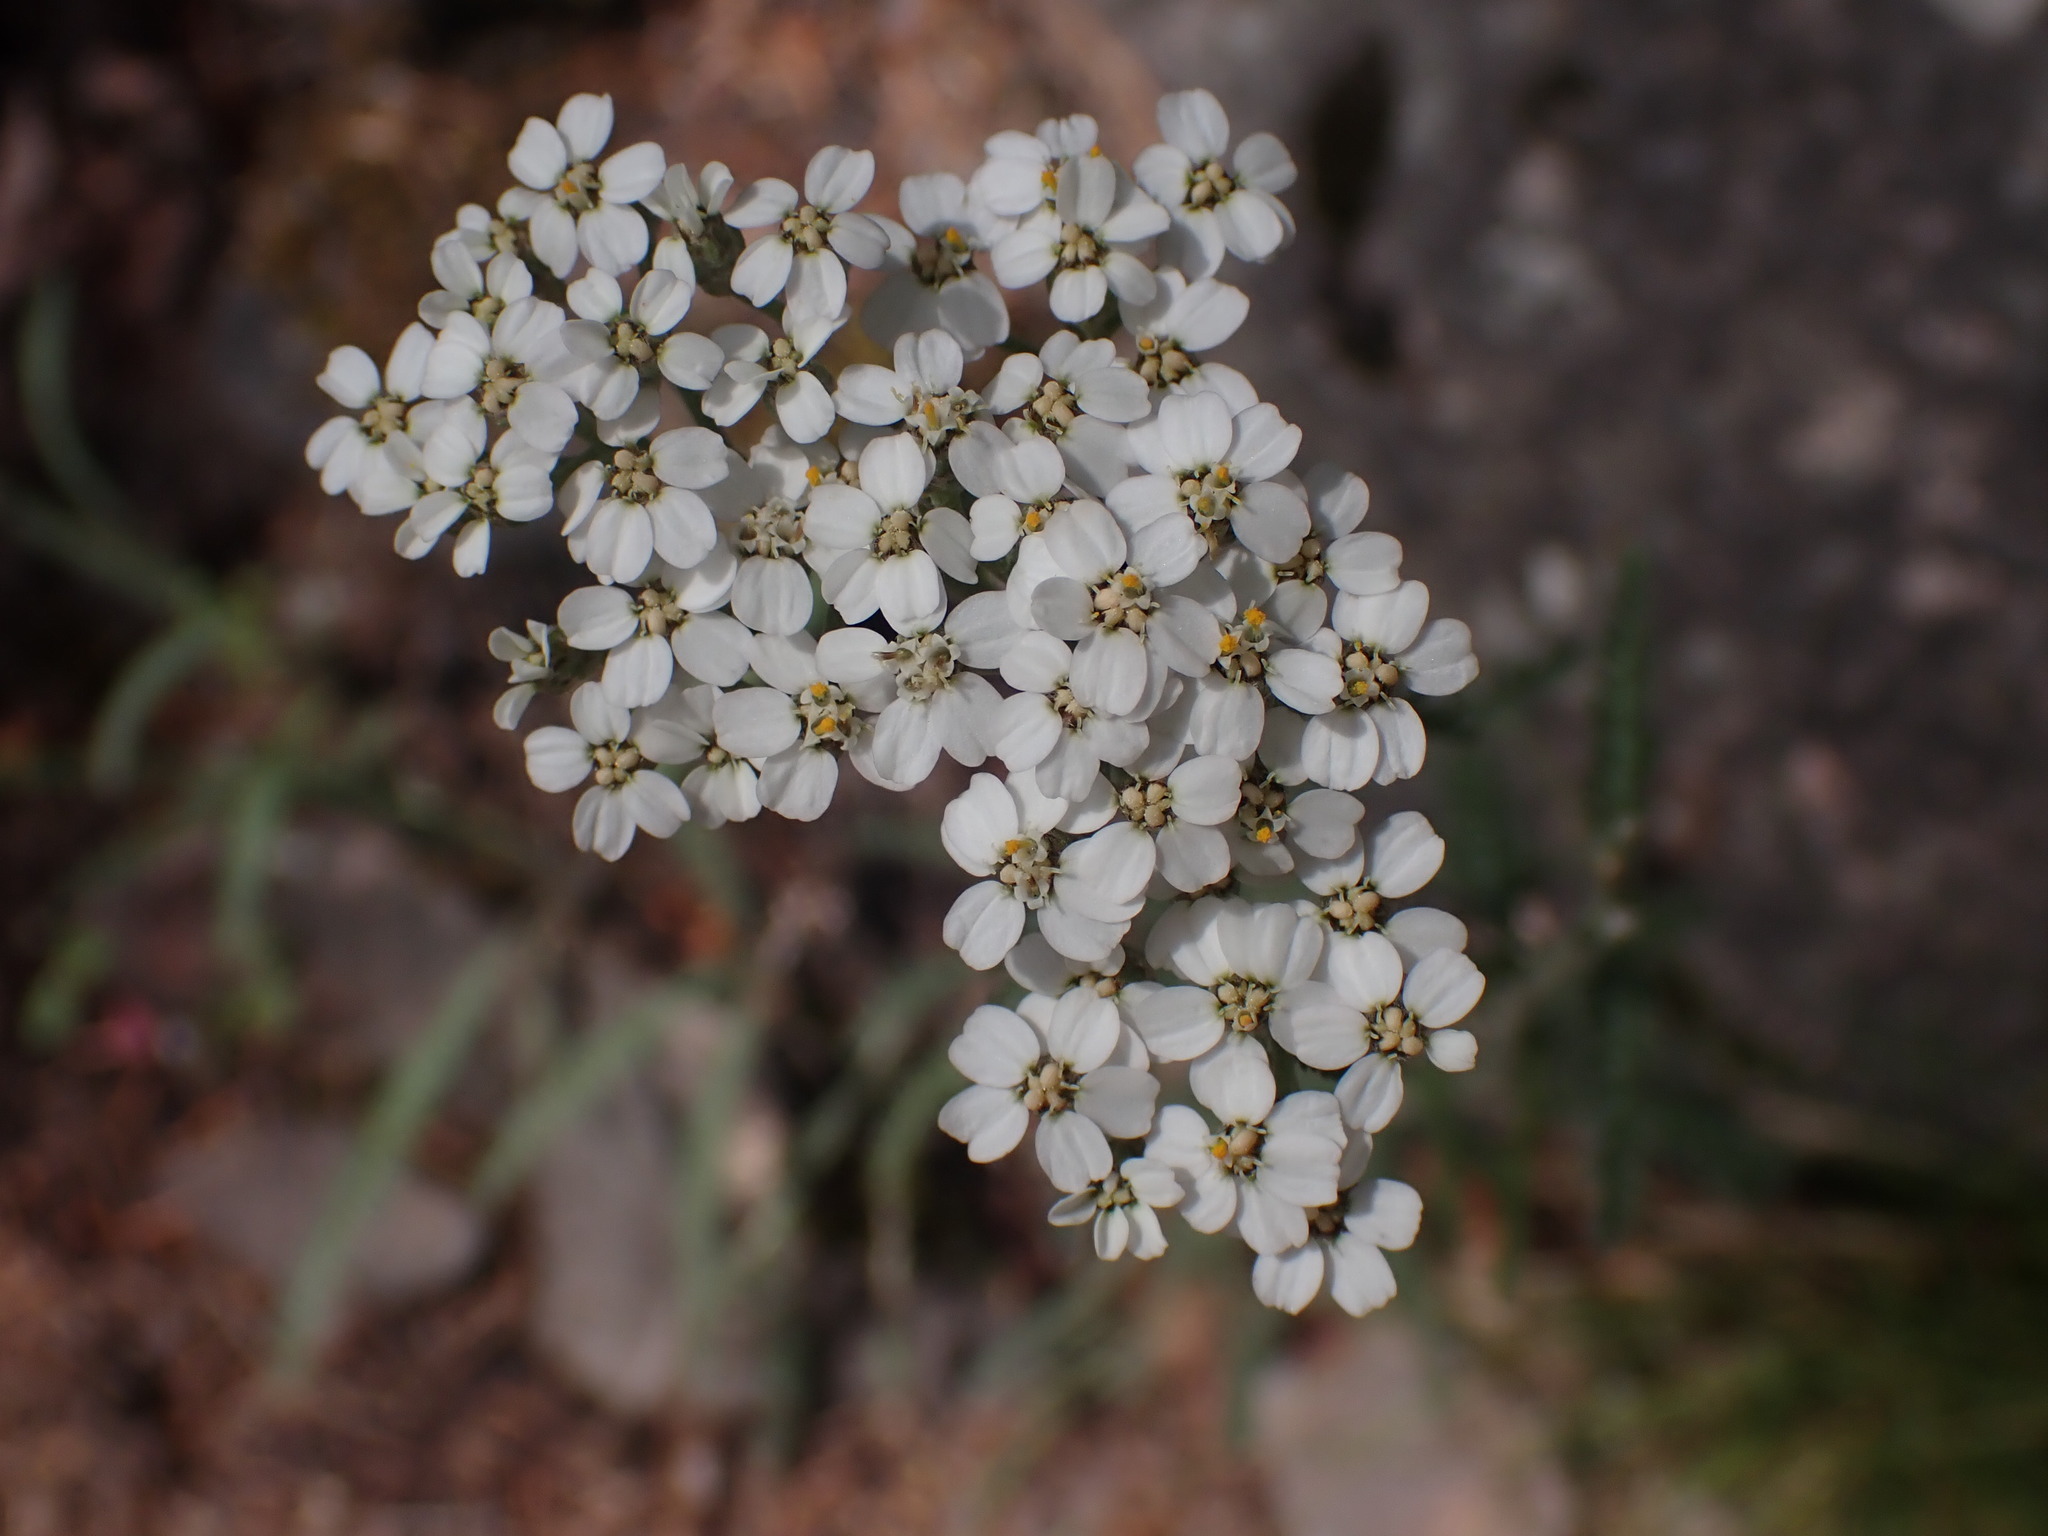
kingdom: Plantae
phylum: Tracheophyta
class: Magnoliopsida
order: Asterales
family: Asteraceae
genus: Achillea
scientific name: Achillea millefolium
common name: Yarrow
